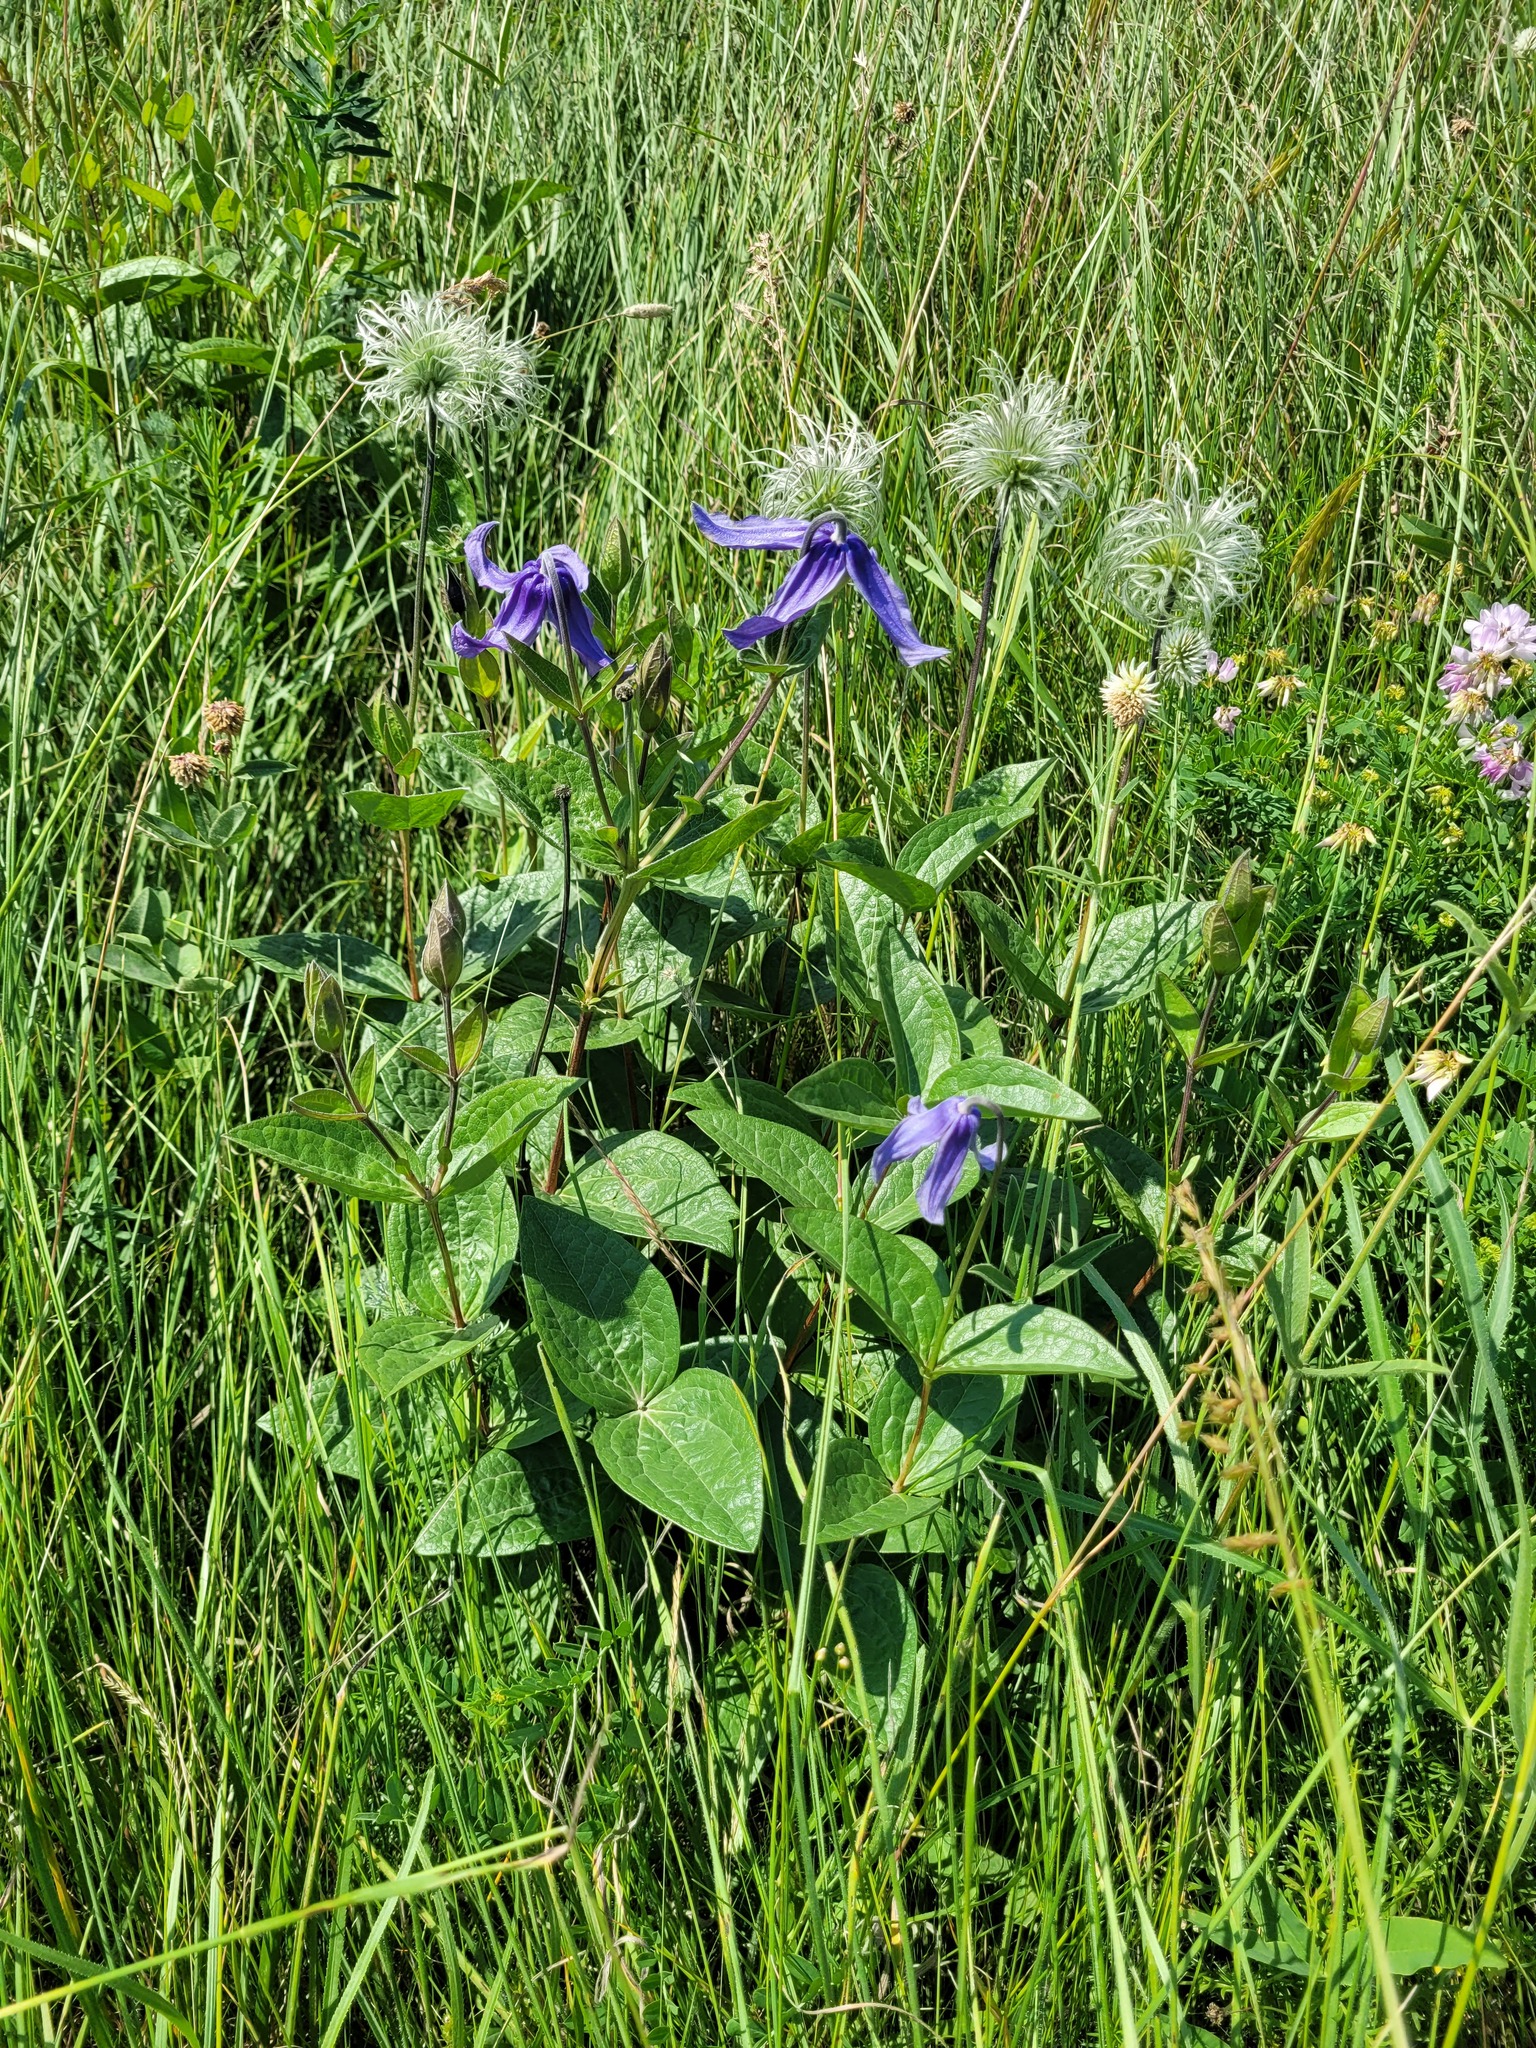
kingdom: Plantae
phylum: Tracheophyta
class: Magnoliopsida
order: Ranunculales
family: Ranunculaceae
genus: Clematis
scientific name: Clematis integrifolia
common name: Solitary clematis
